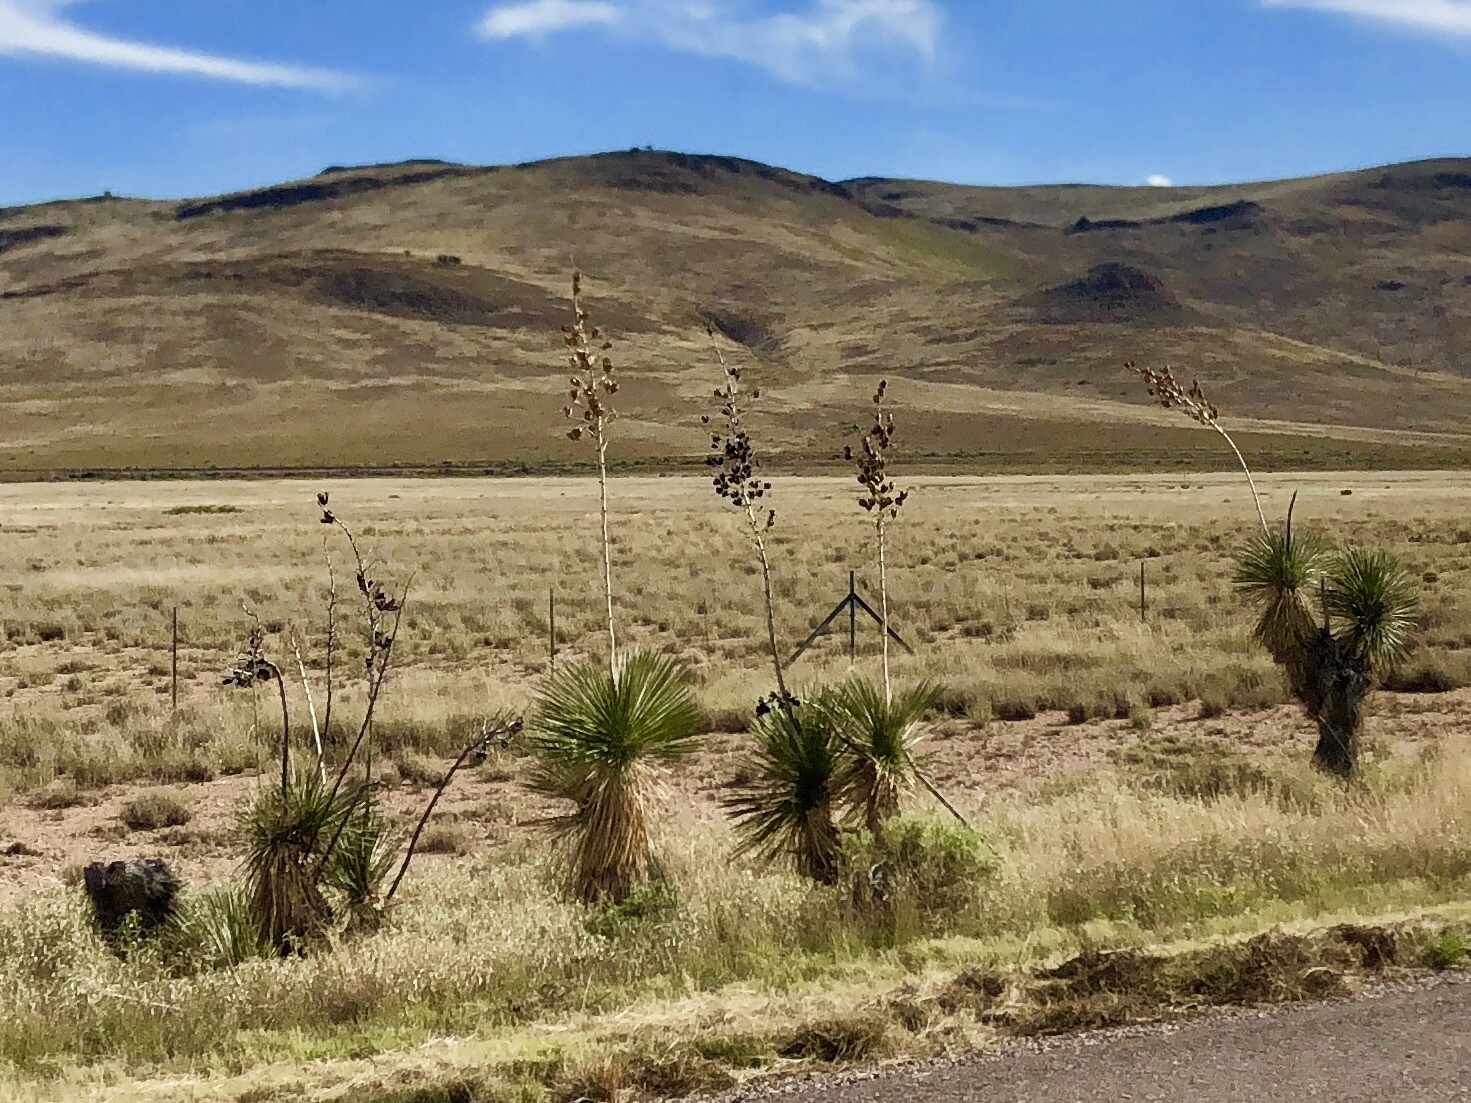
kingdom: Plantae
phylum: Tracheophyta
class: Liliopsida
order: Asparagales
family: Asparagaceae
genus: Yucca
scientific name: Yucca elata
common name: Palmella
